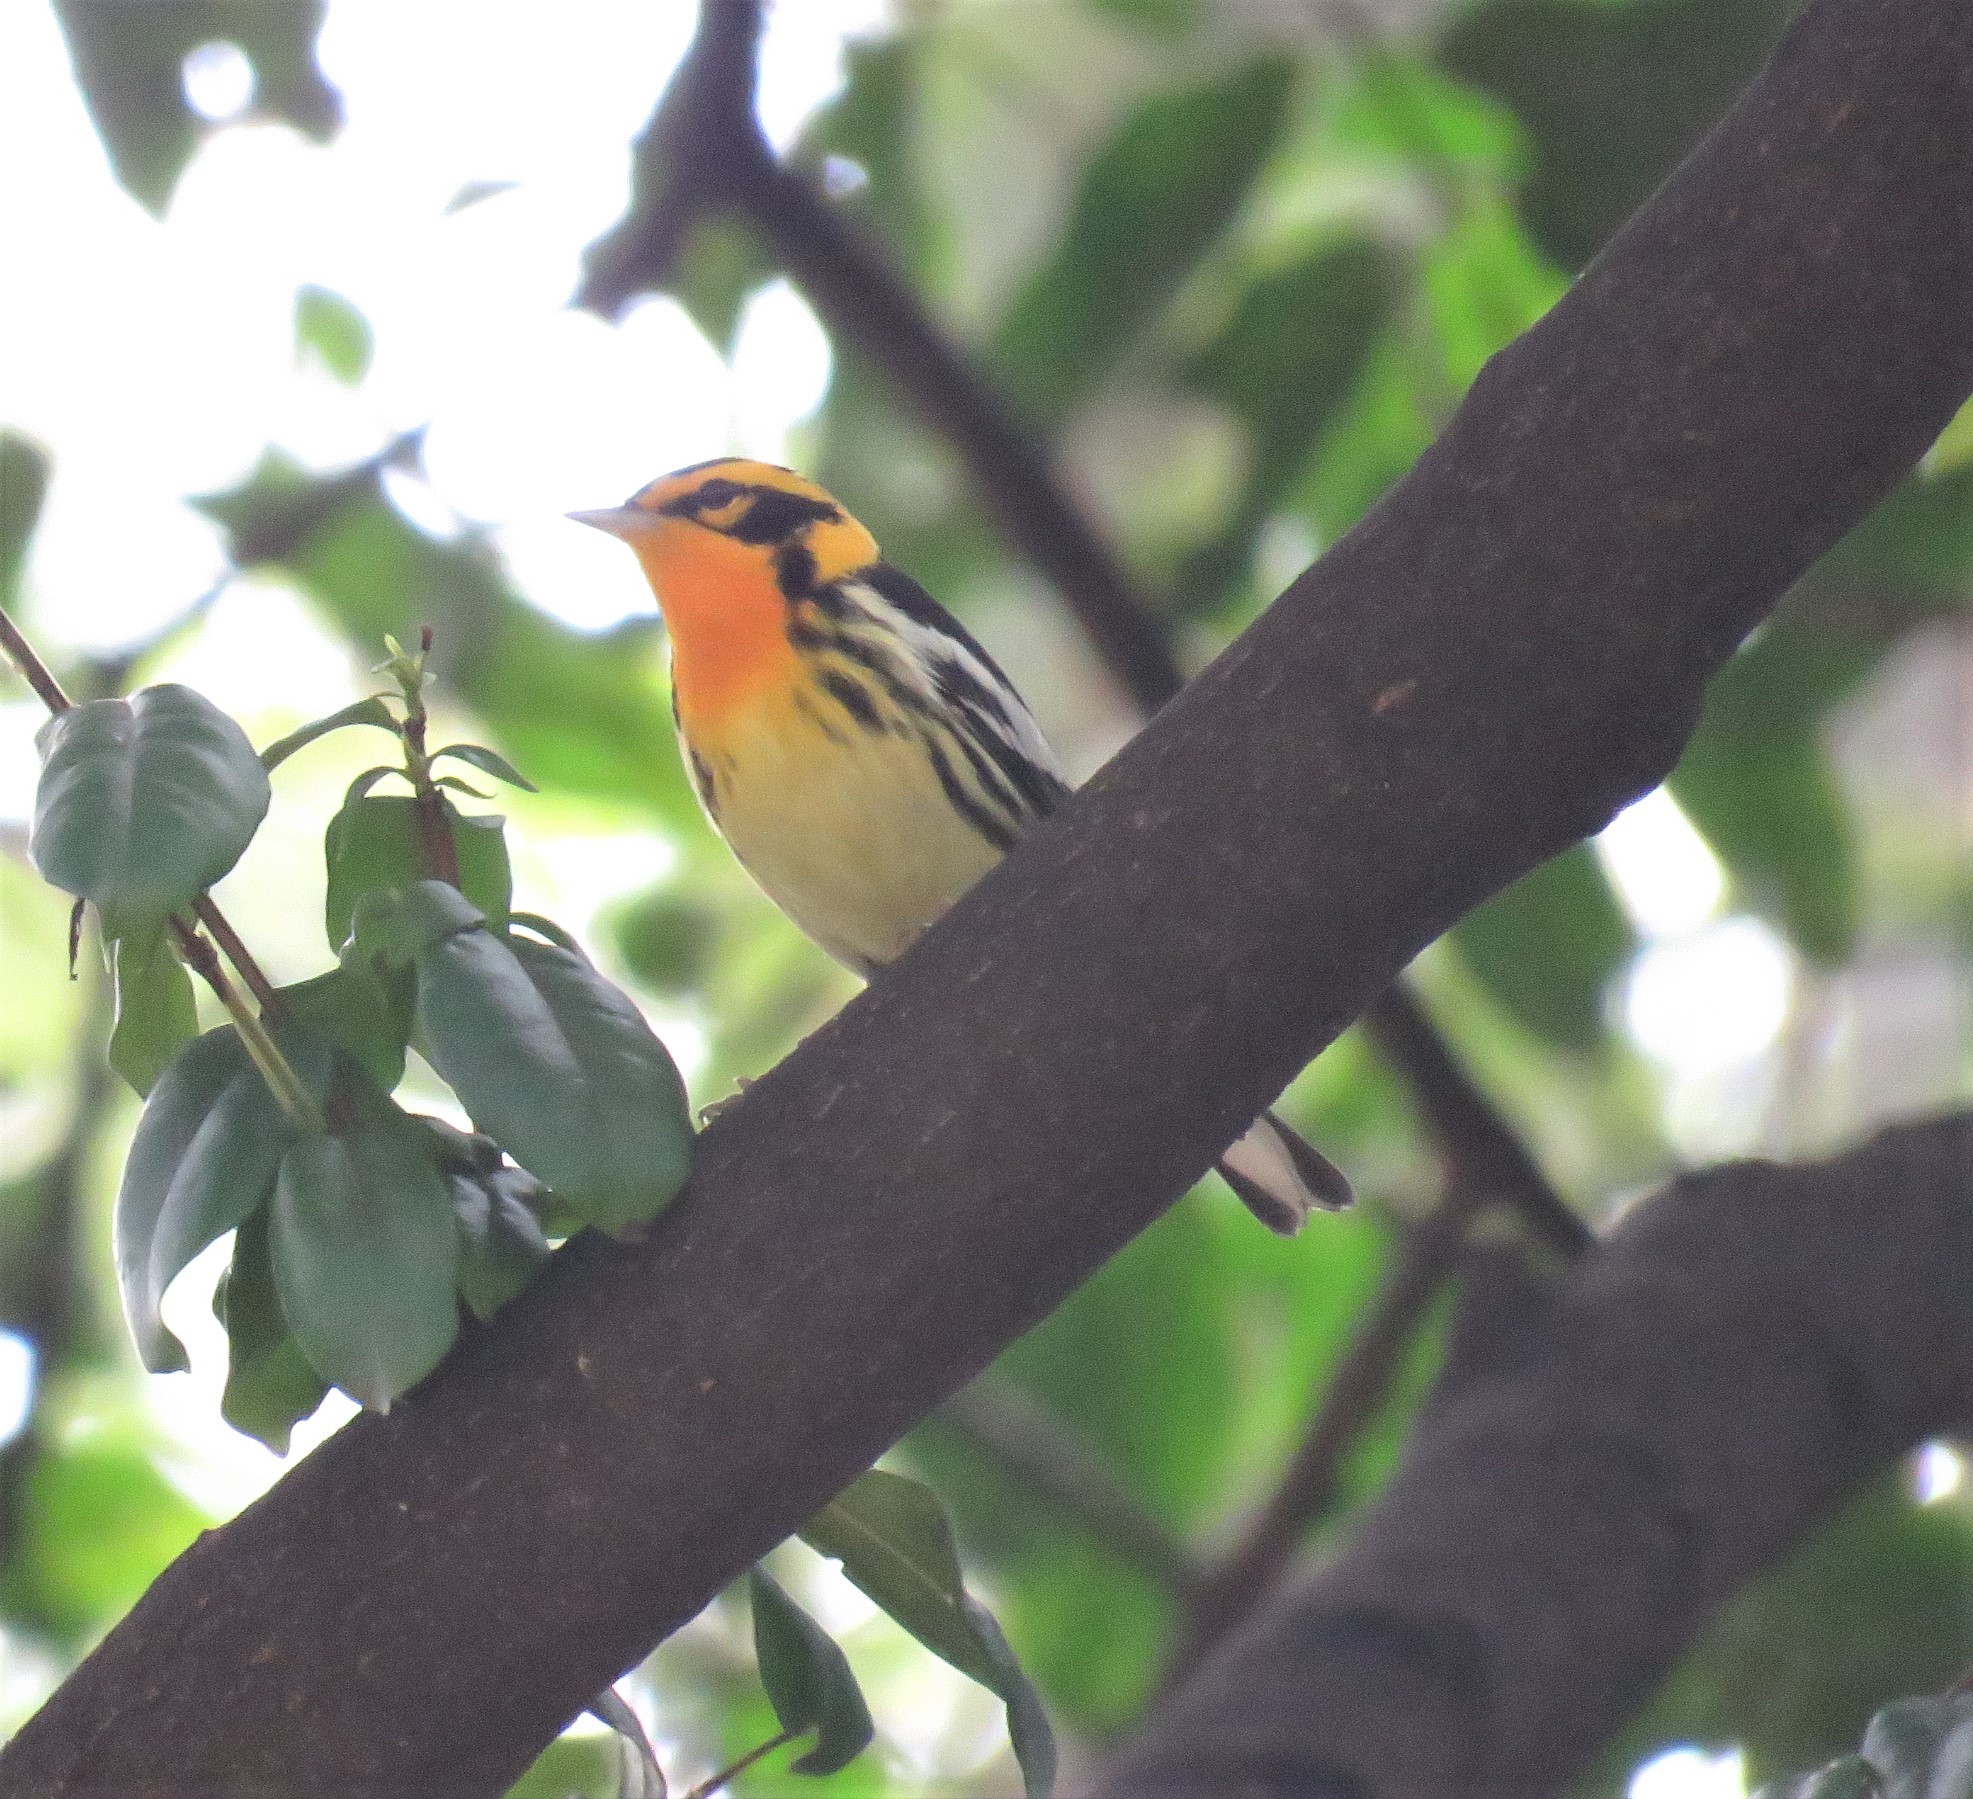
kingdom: Animalia
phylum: Chordata
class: Aves
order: Passeriformes
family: Parulidae
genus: Setophaga
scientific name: Setophaga fusca
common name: Blackburnian warbler
